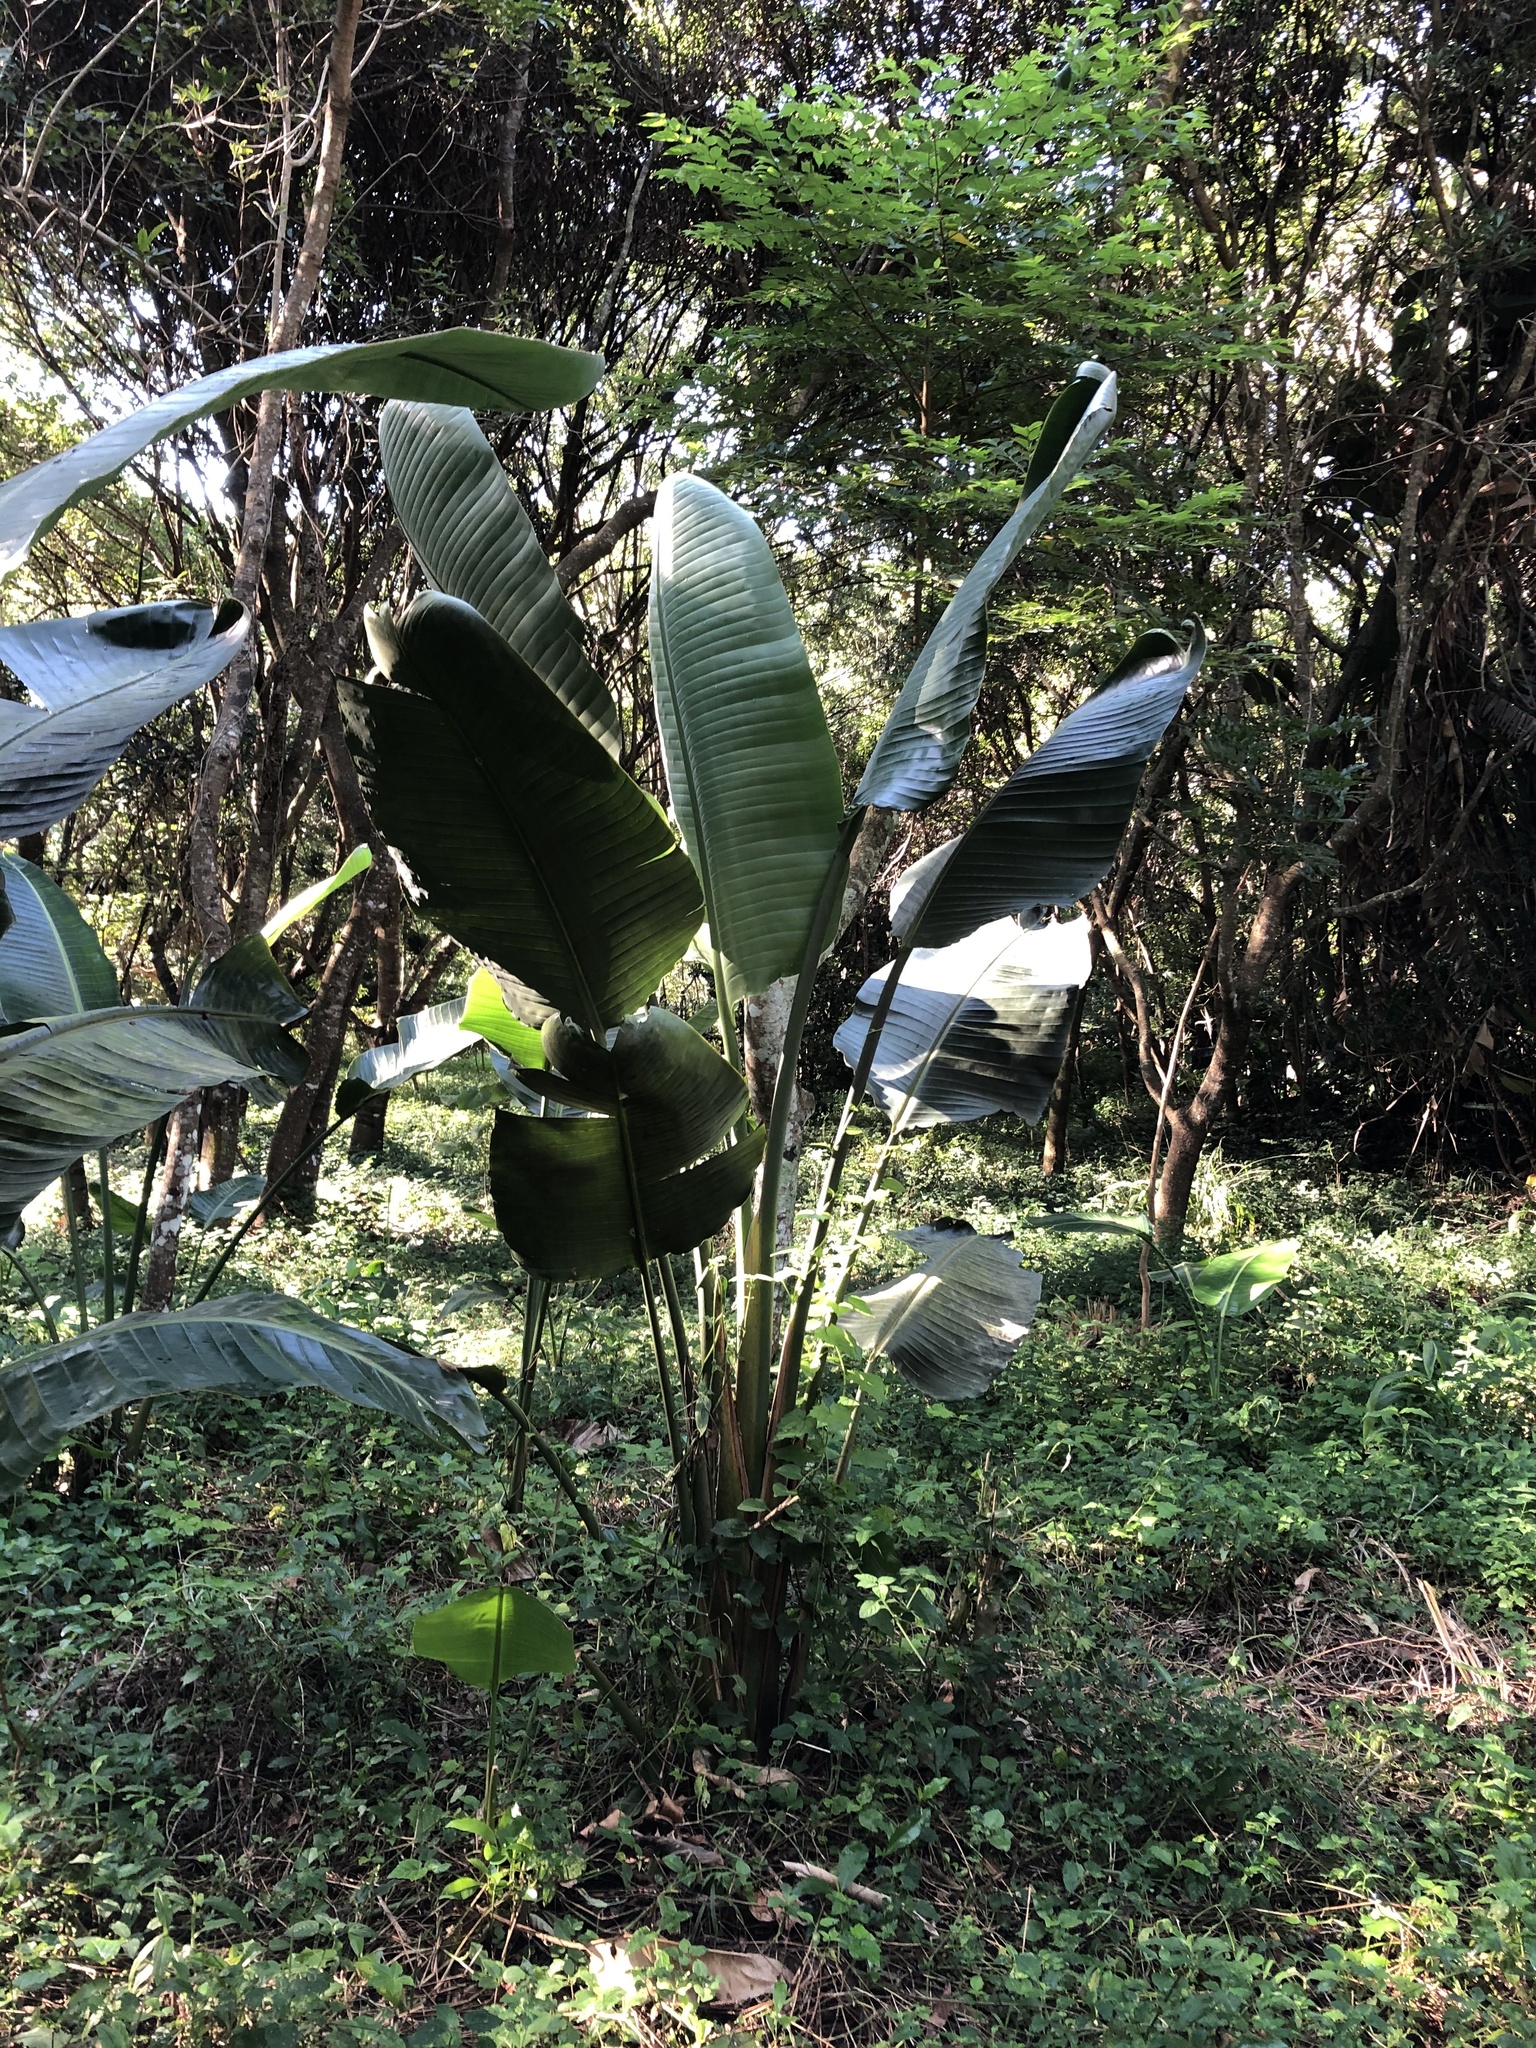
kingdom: Plantae
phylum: Tracheophyta
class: Liliopsida
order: Zingiberales
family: Strelitziaceae
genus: Strelitzia
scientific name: Strelitzia nicolai
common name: Bird-of-paradise tree
